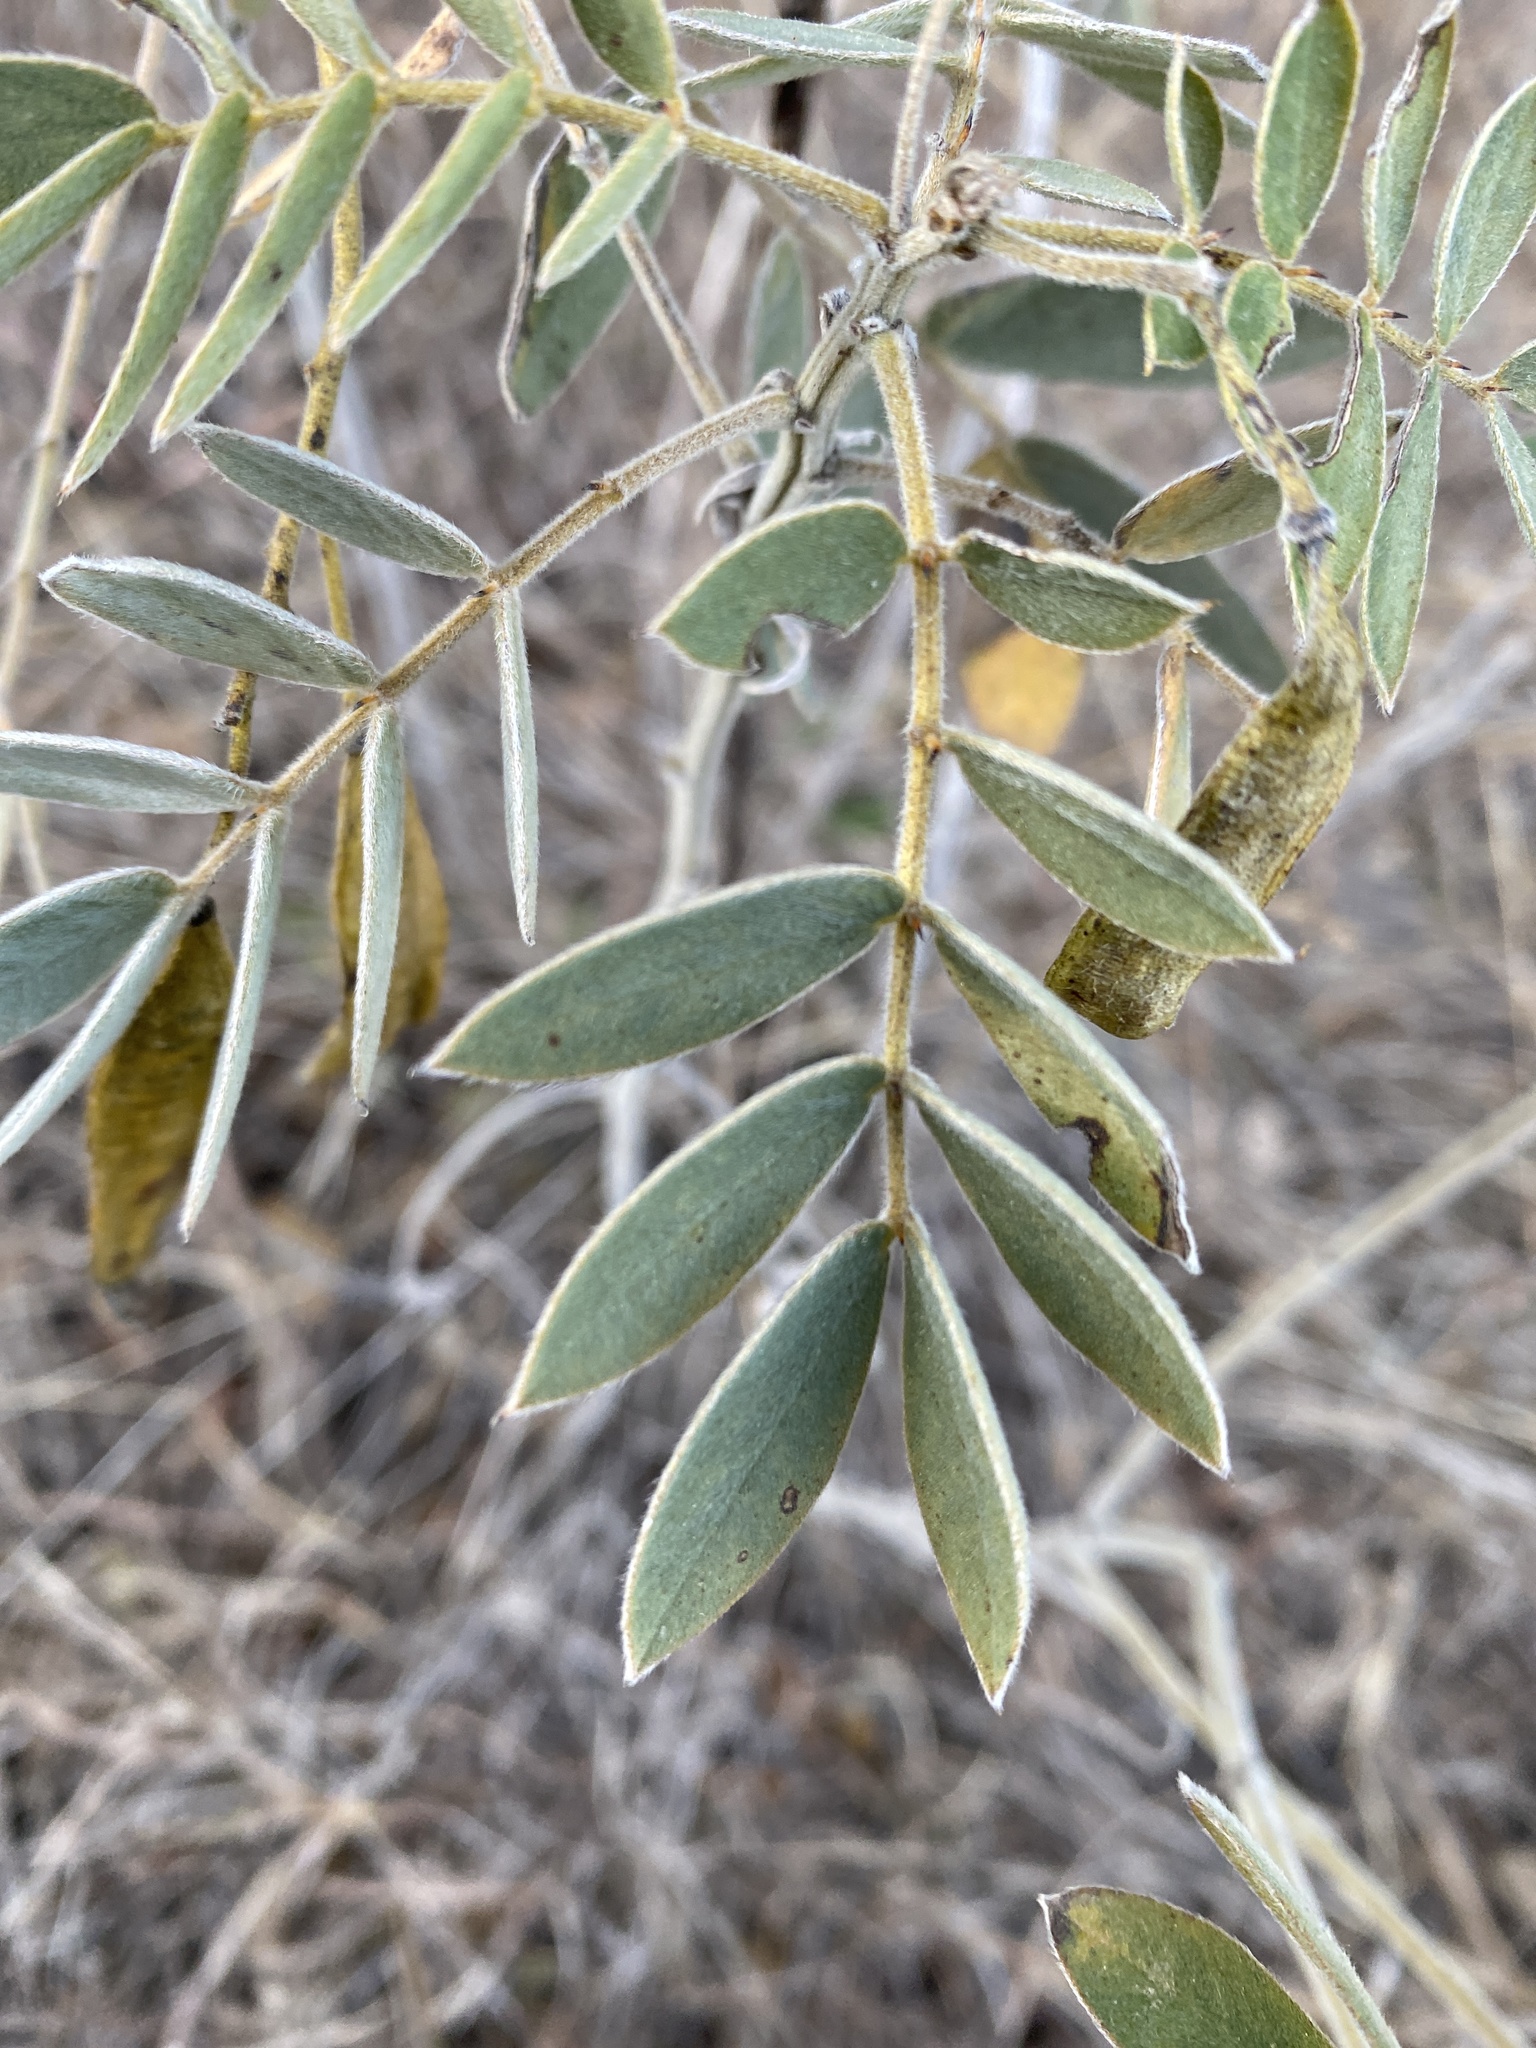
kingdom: Plantae
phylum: Tracheophyta
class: Magnoliopsida
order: Fabales
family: Fabaceae
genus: Senna
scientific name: Senna lindheimeriana
